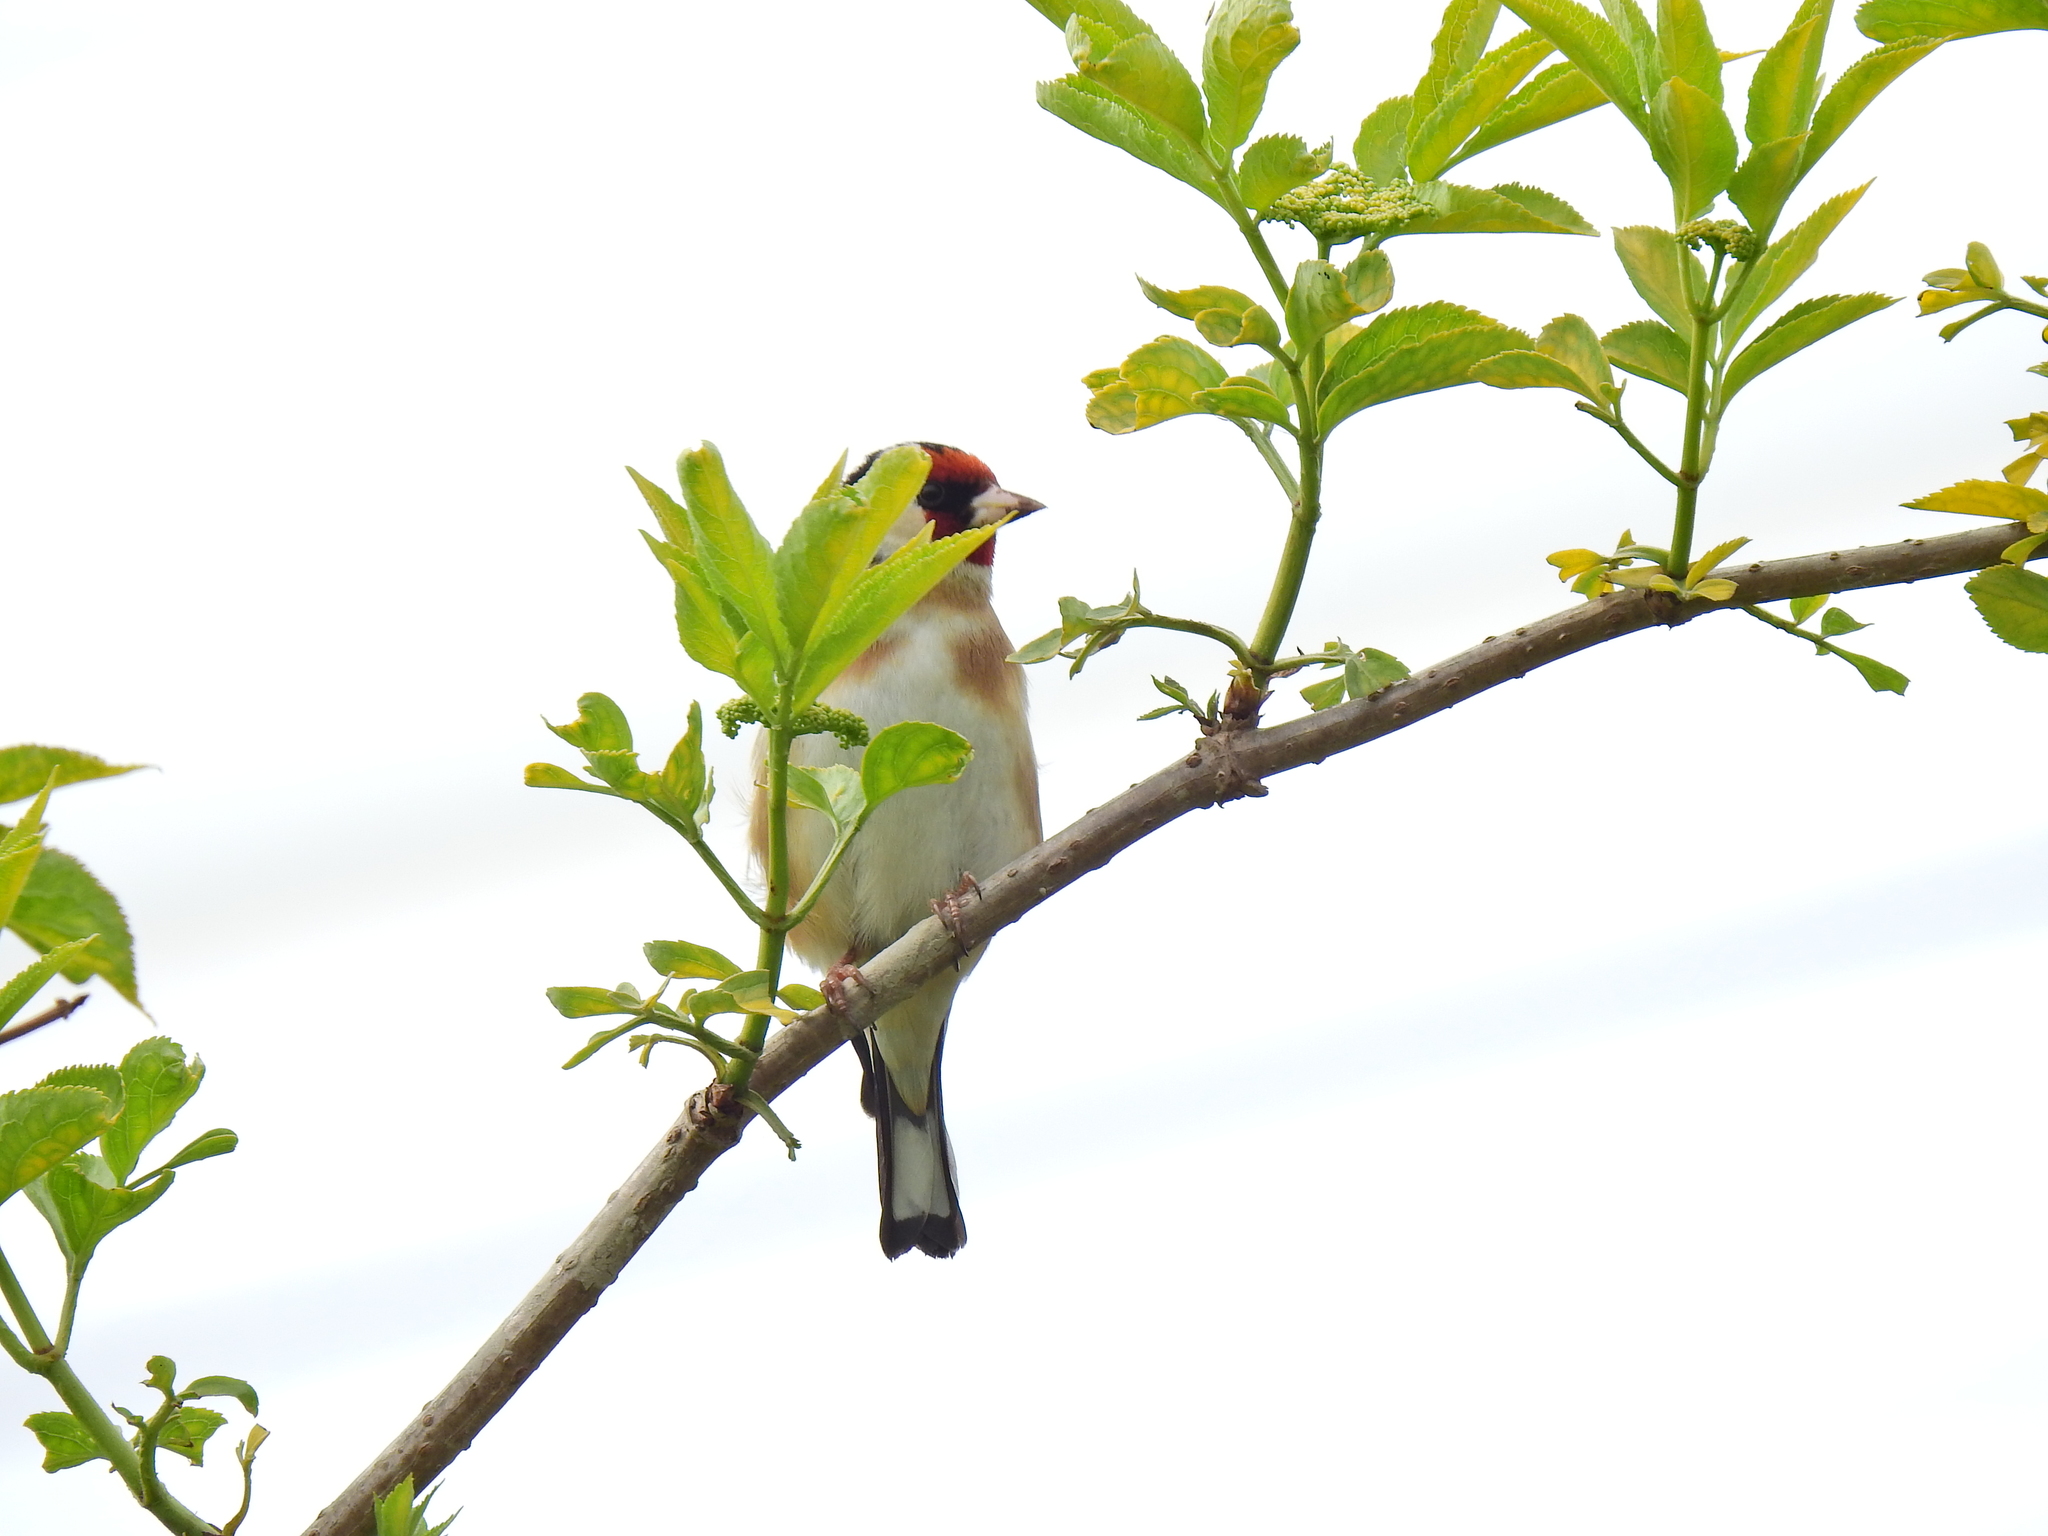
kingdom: Animalia
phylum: Chordata
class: Aves
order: Passeriformes
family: Fringillidae
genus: Carduelis
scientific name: Carduelis carduelis
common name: European goldfinch
